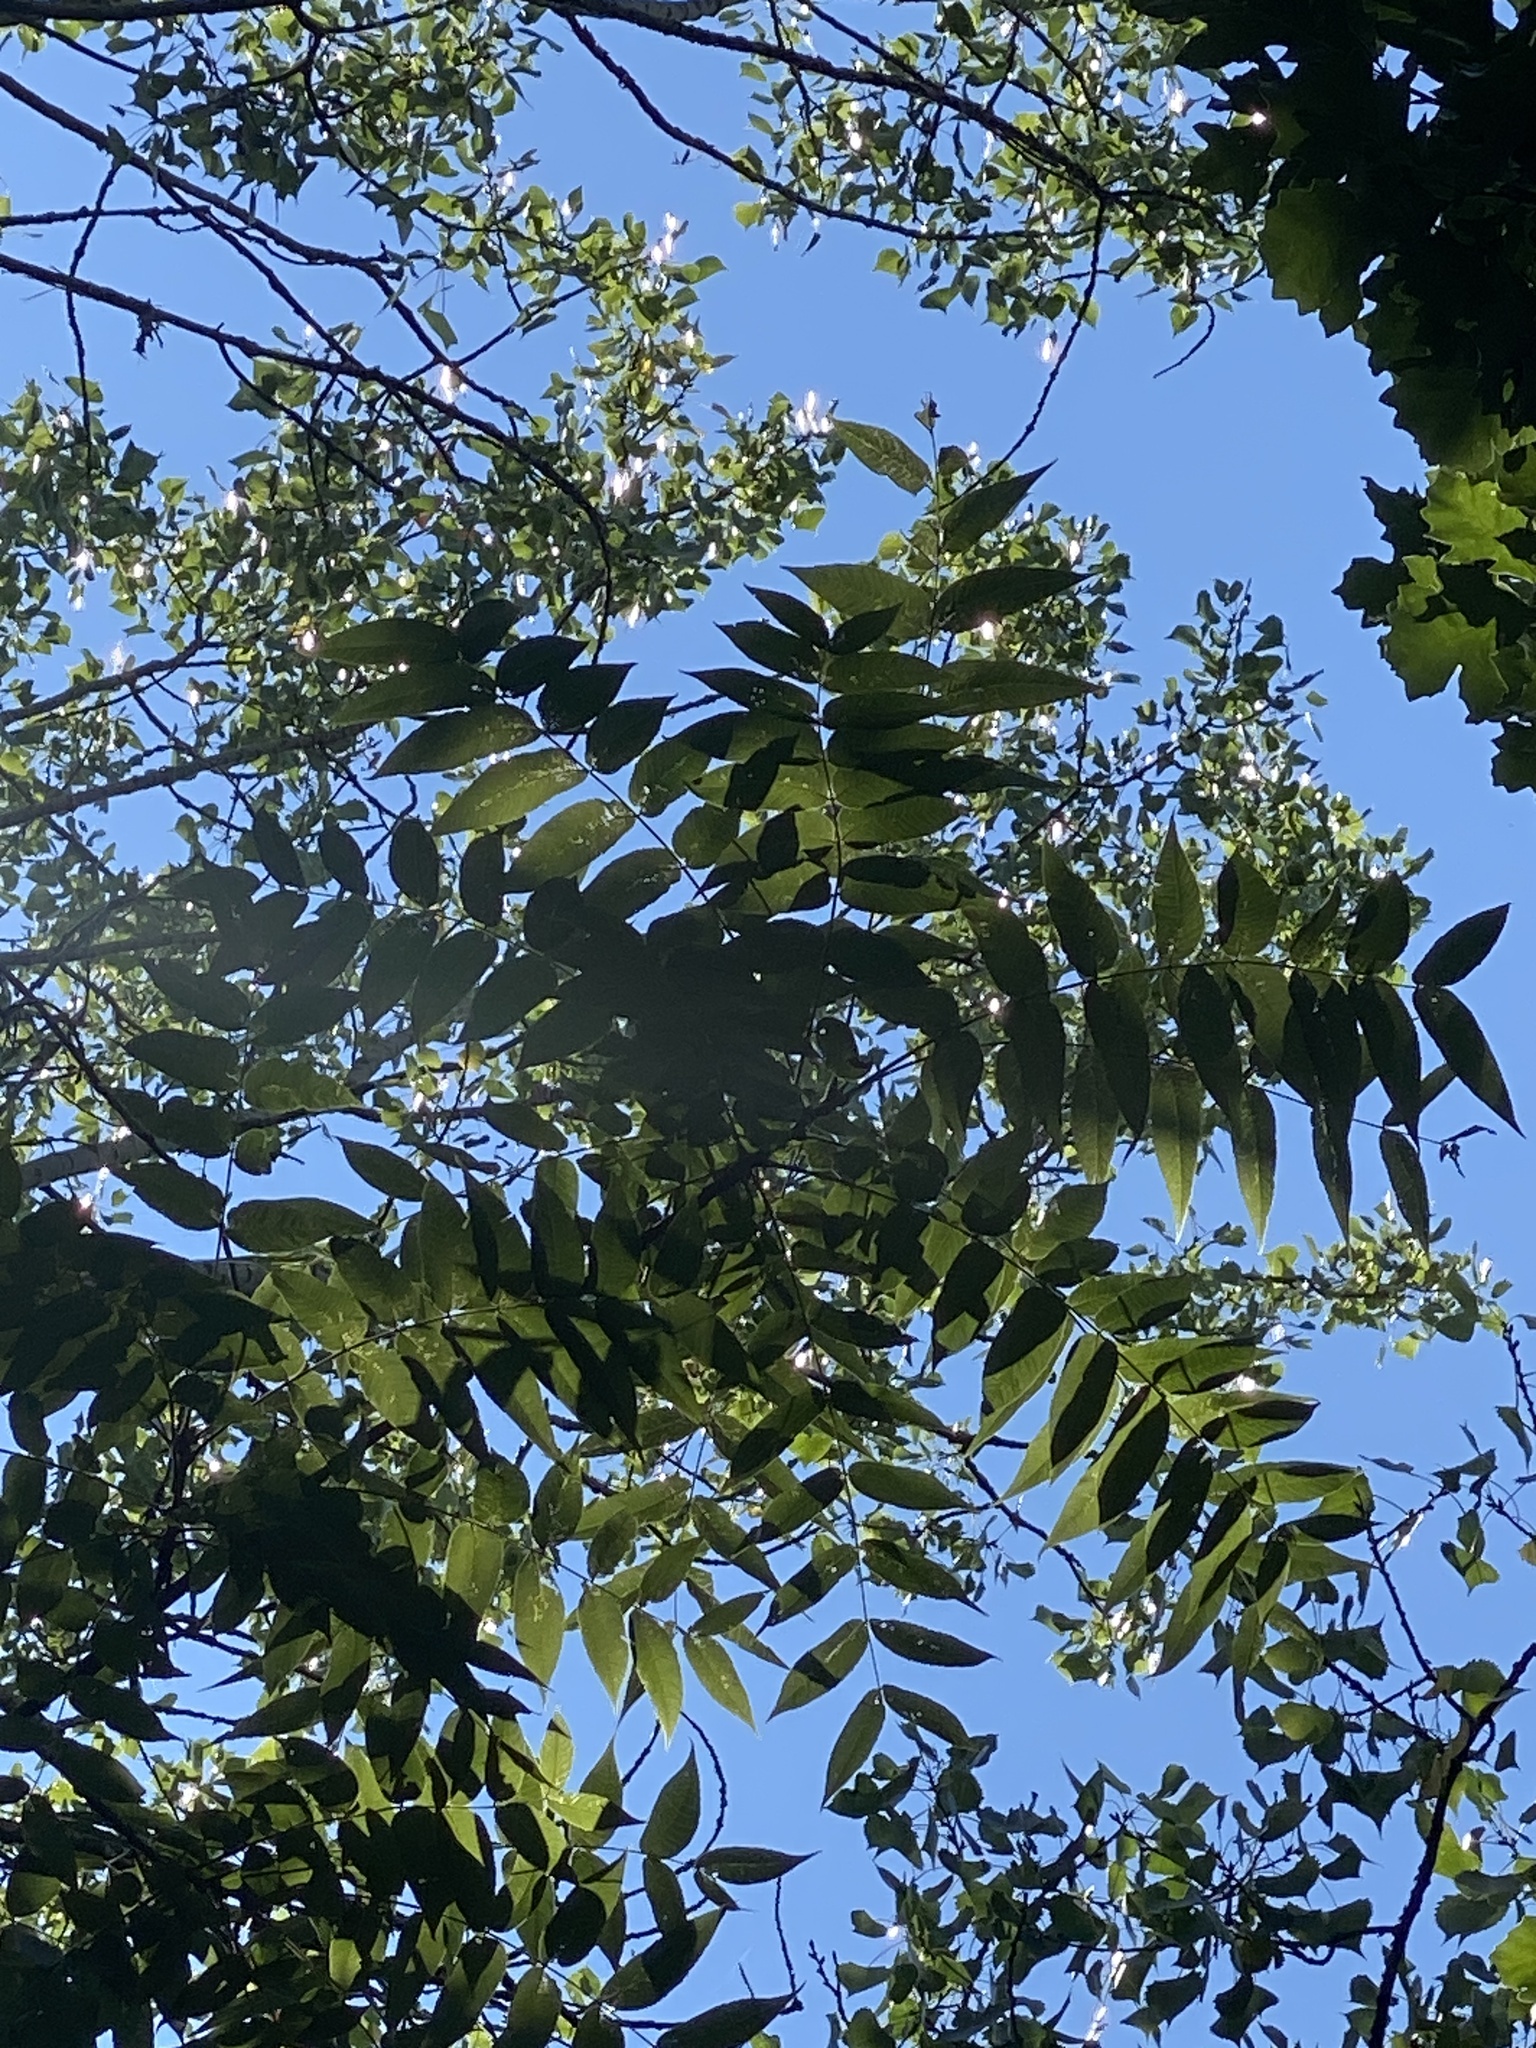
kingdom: Plantae
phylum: Tracheophyta
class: Magnoliopsida
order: Fagales
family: Juglandaceae
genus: Juglans
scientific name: Juglans nigra
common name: Black walnut
